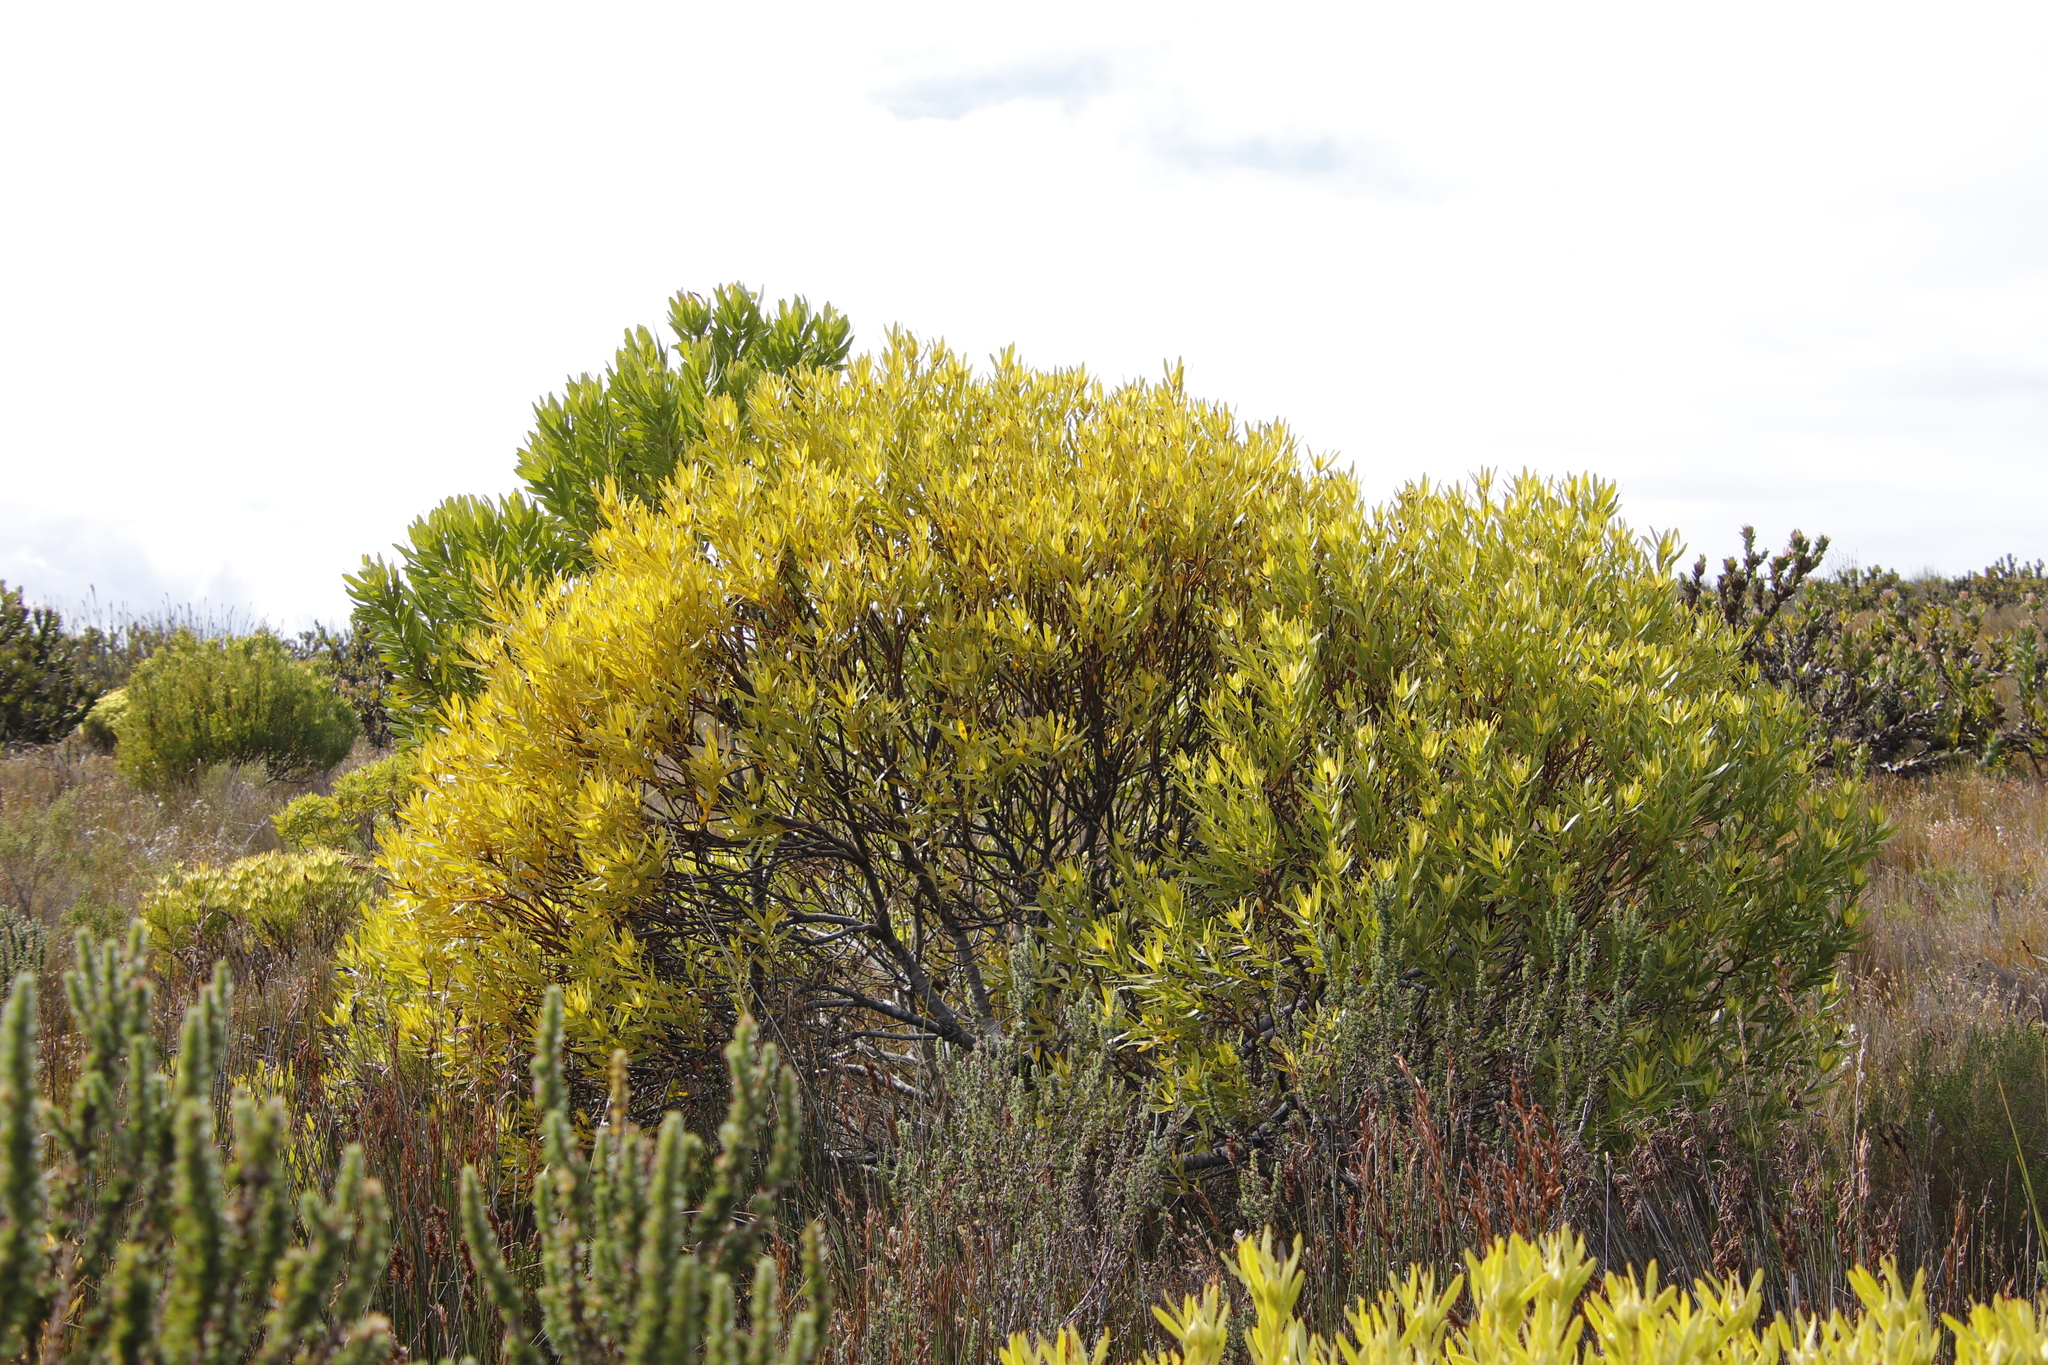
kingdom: Plantae
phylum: Tracheophyta
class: Magnoliopsida
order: Proteales
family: Proteaceae
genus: Leucadendron
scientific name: Leucadendron coniferum
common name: Dune conebush
